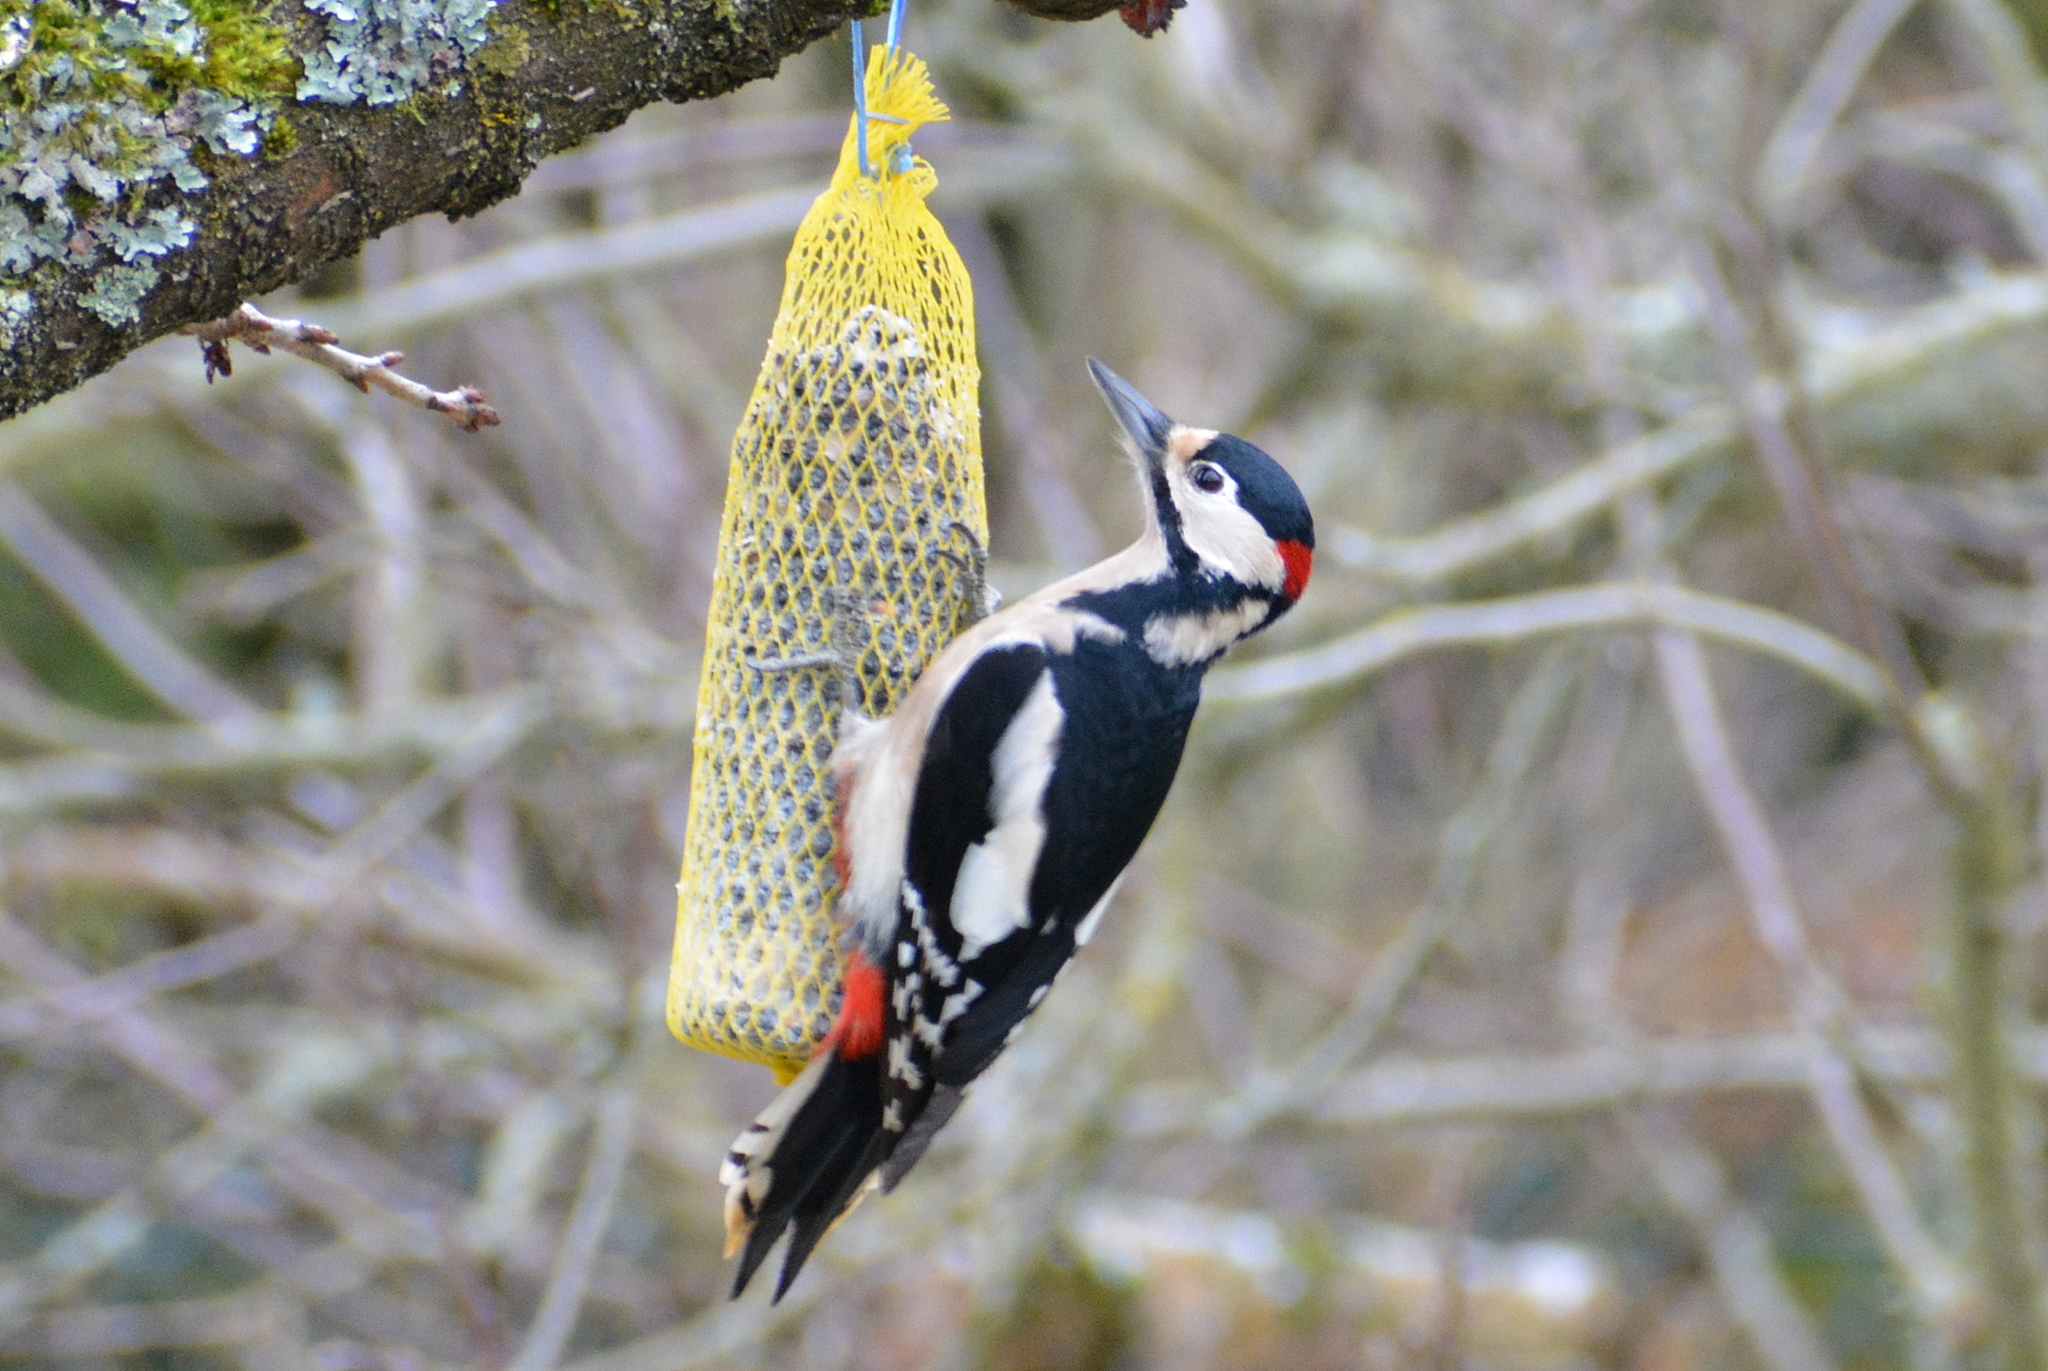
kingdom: Animalia
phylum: Chordata
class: Aves
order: Piciformes
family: Picidae
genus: Dendrocopos
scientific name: Dendrocopos major
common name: Great spotted woodpecker
